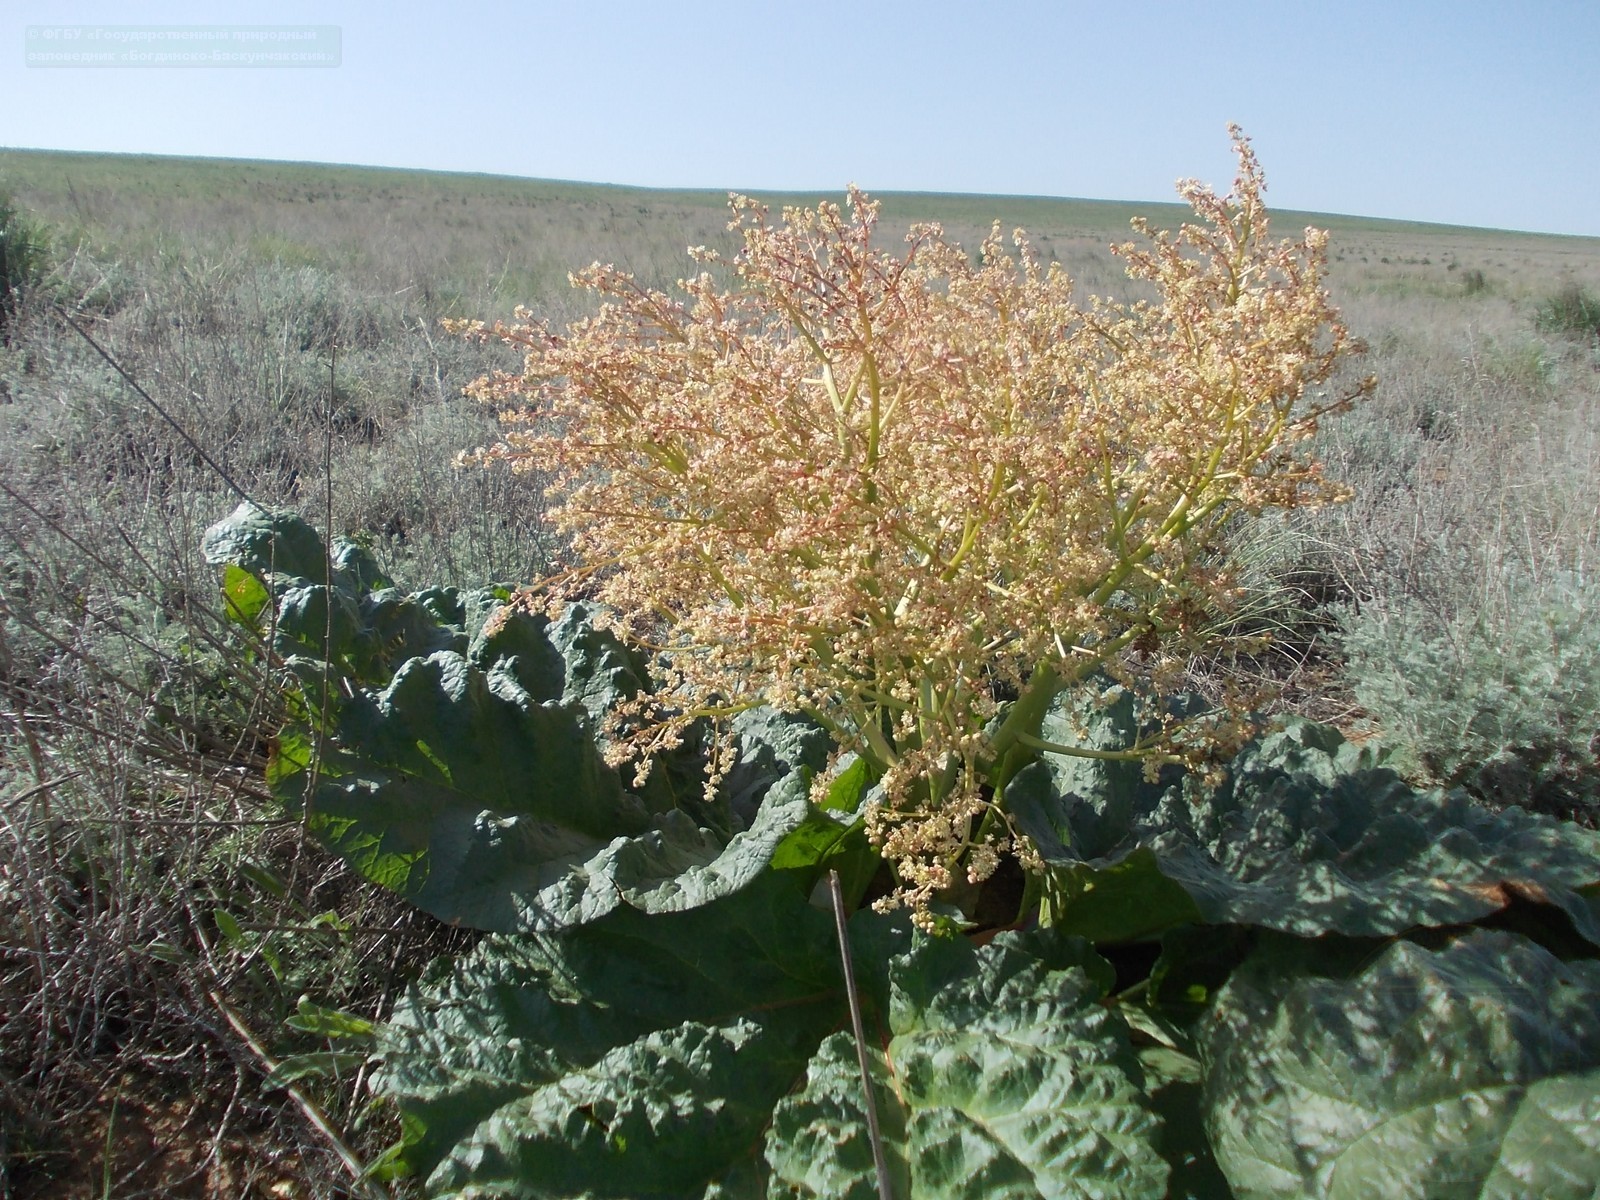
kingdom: Plantae
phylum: Tracheophyta
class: Magnoliopsida
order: Caryophyllales
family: Polygonaceae
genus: Rheum
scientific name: Rheum tataricum
